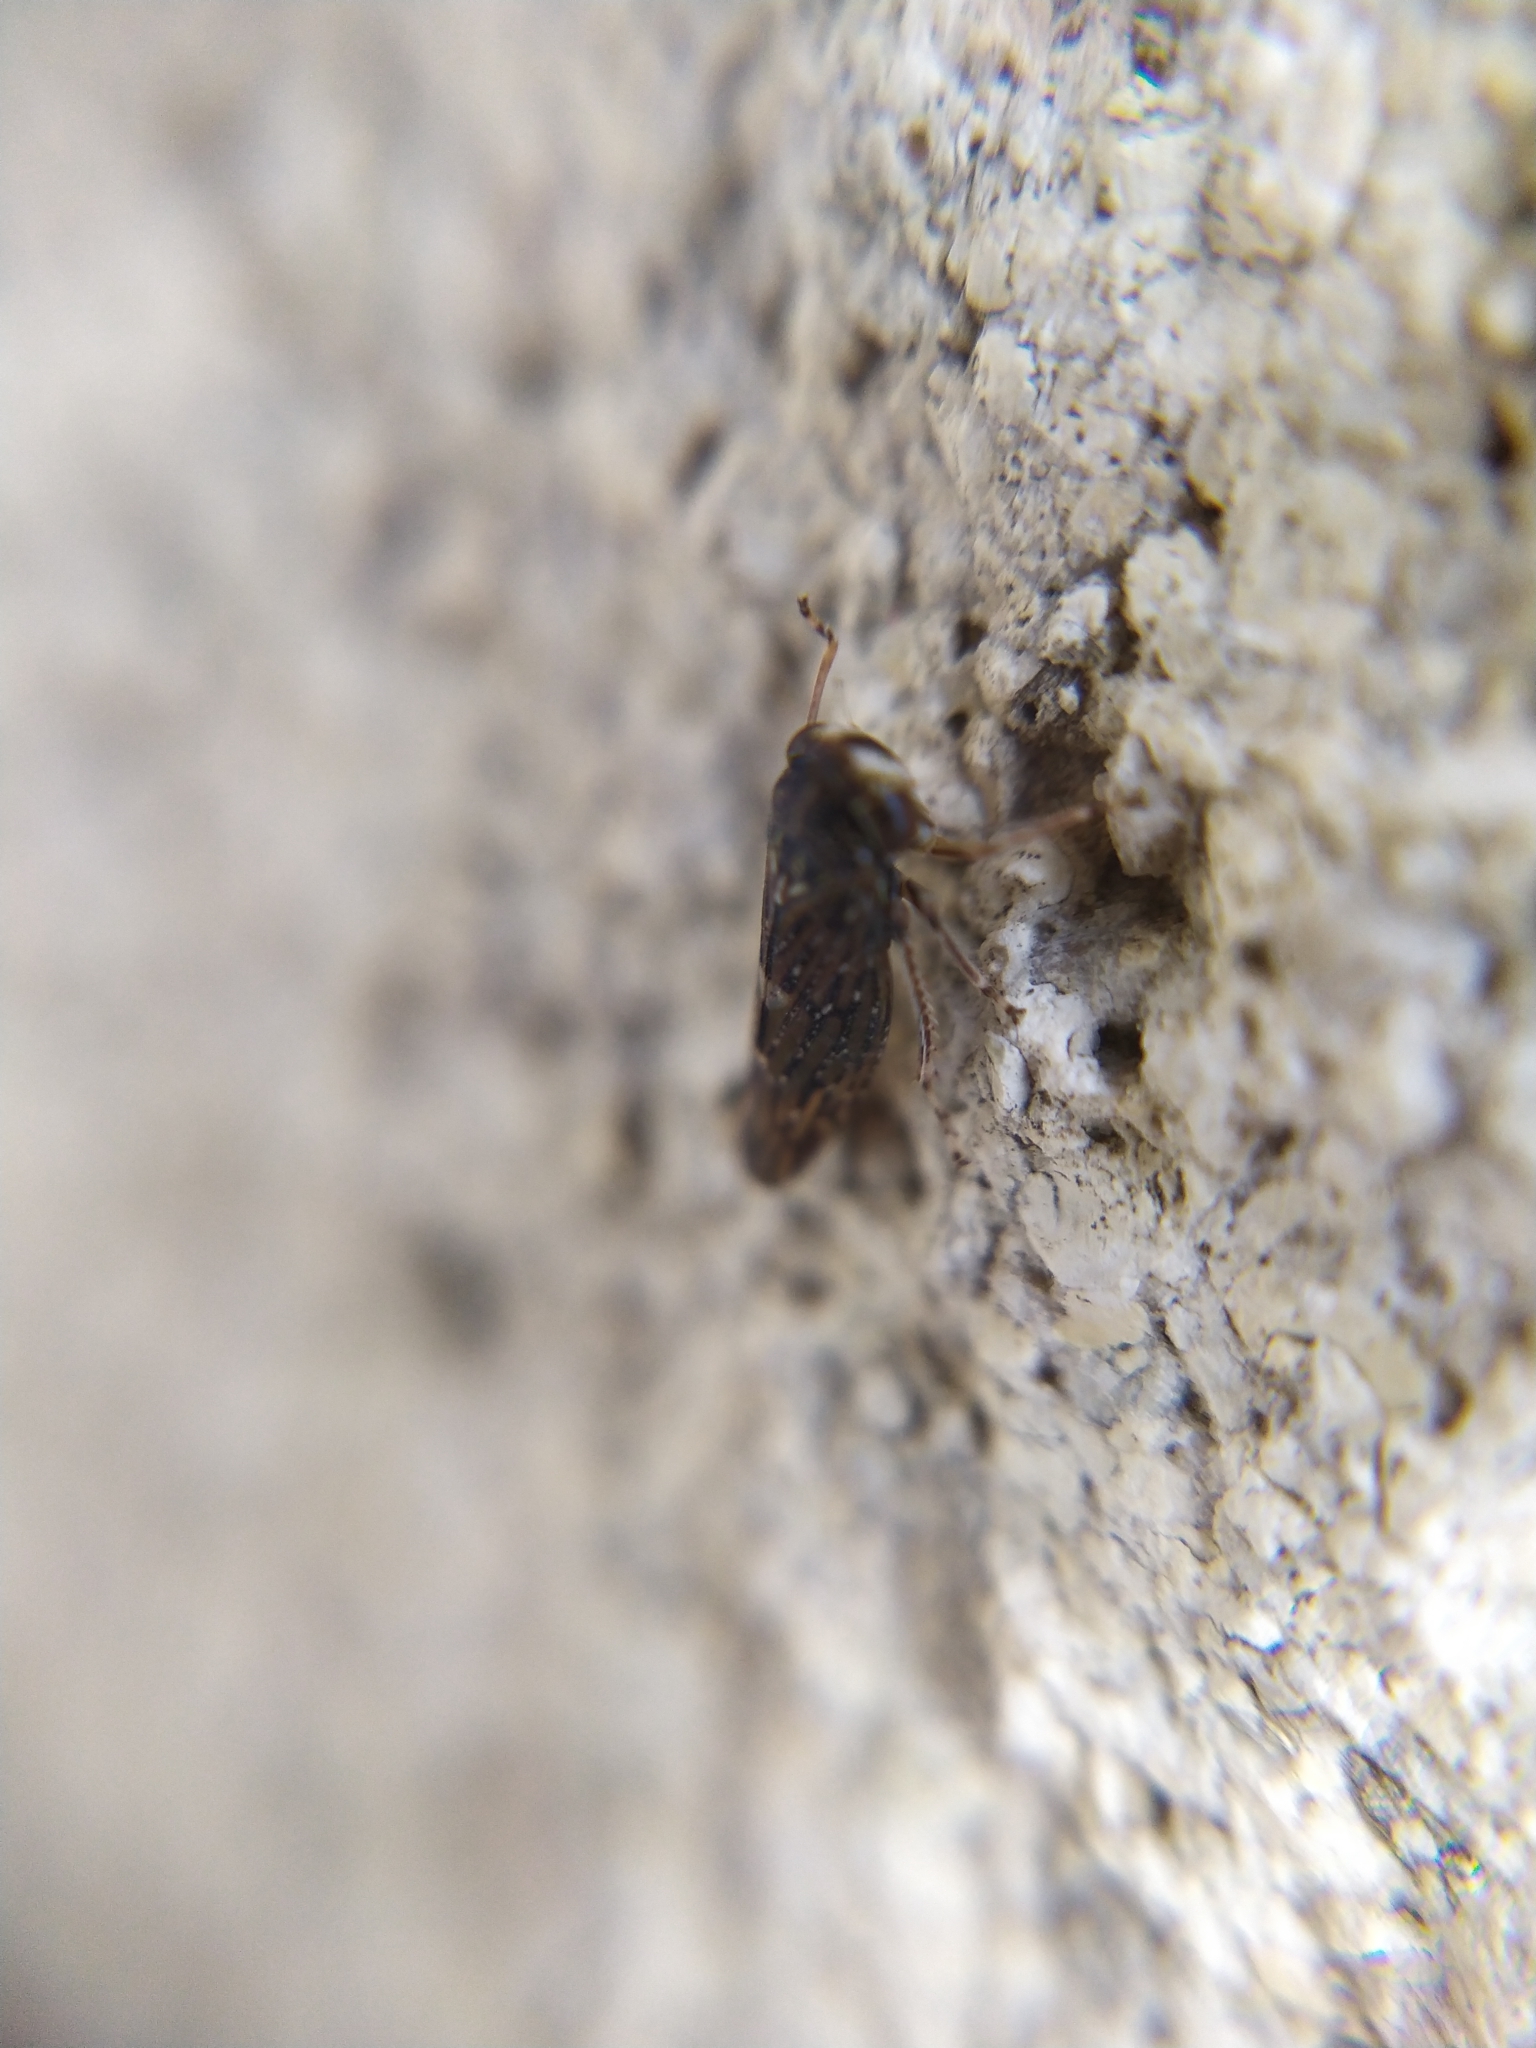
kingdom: Animalia
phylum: Arthropoda
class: Insecta
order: Hemiptera
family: Cicadellidae
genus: Acericerus
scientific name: Acericerus heydenii
